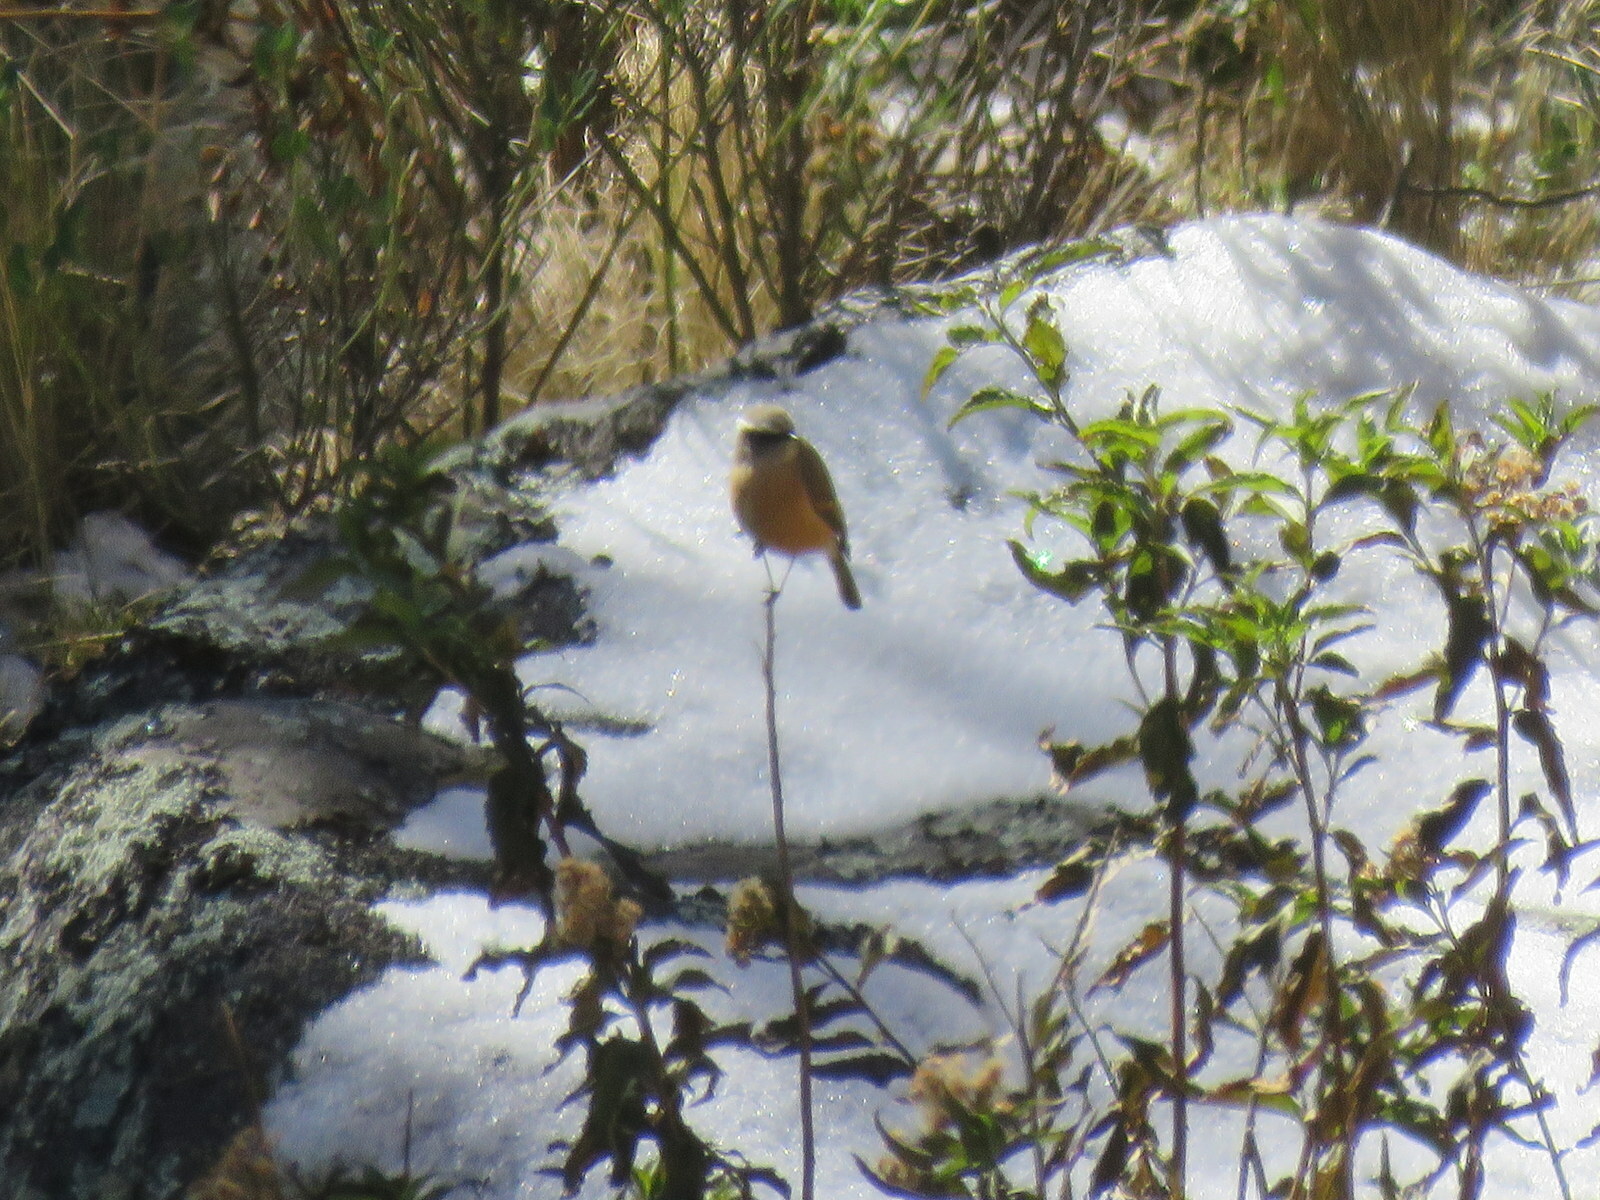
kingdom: Animalia
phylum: Chordata
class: Aves
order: Passeriformes
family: Tyrannidae
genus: Ochthoeca
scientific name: Ochthoeca oenanthoides
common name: D'orbigny's chat-tyrant
